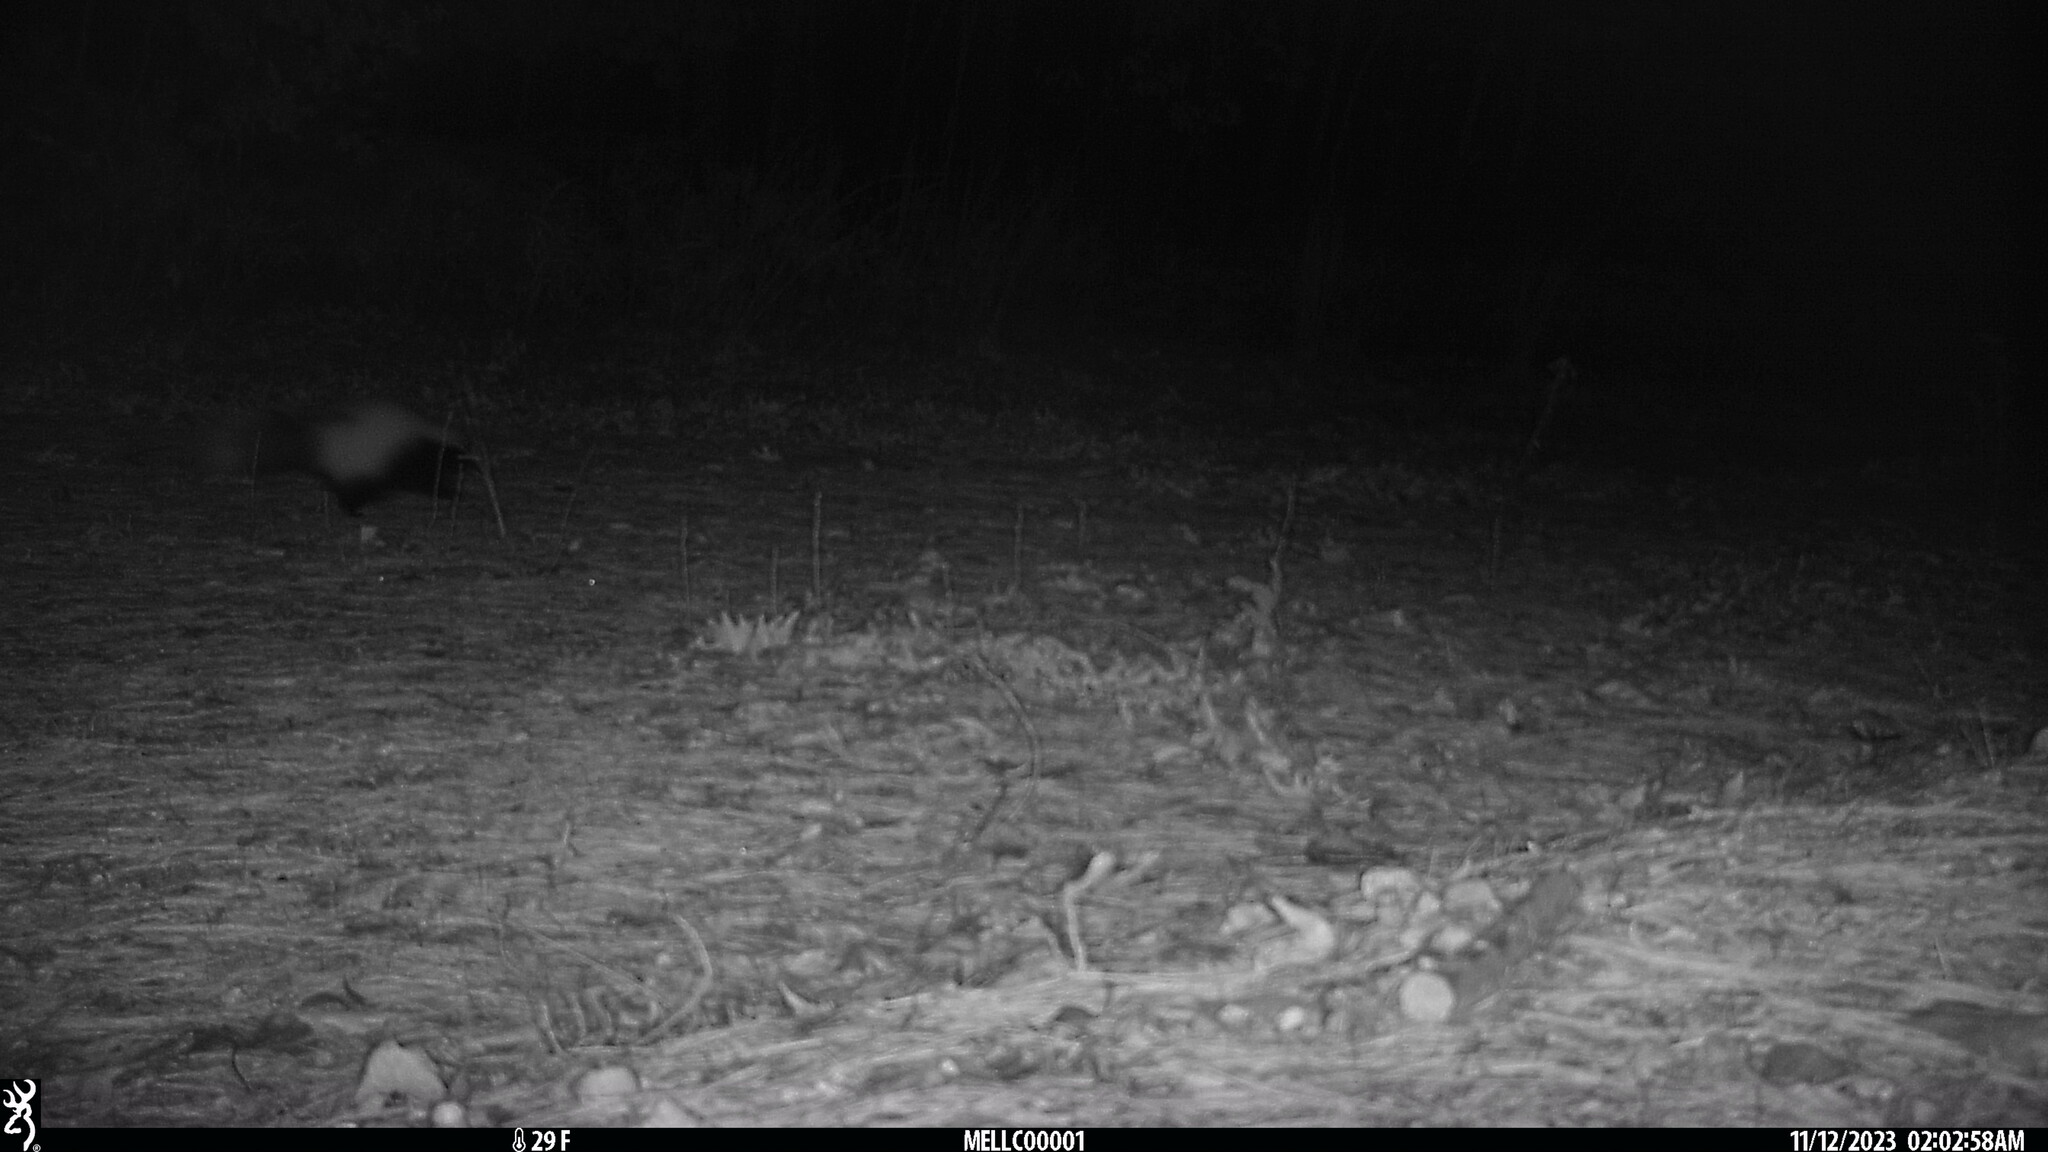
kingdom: Animalia
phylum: Chordata
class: Mammalia
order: Carnivora
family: Mephitidae
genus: Mephitis
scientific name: Mephitis mephitis
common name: Striped skunk
